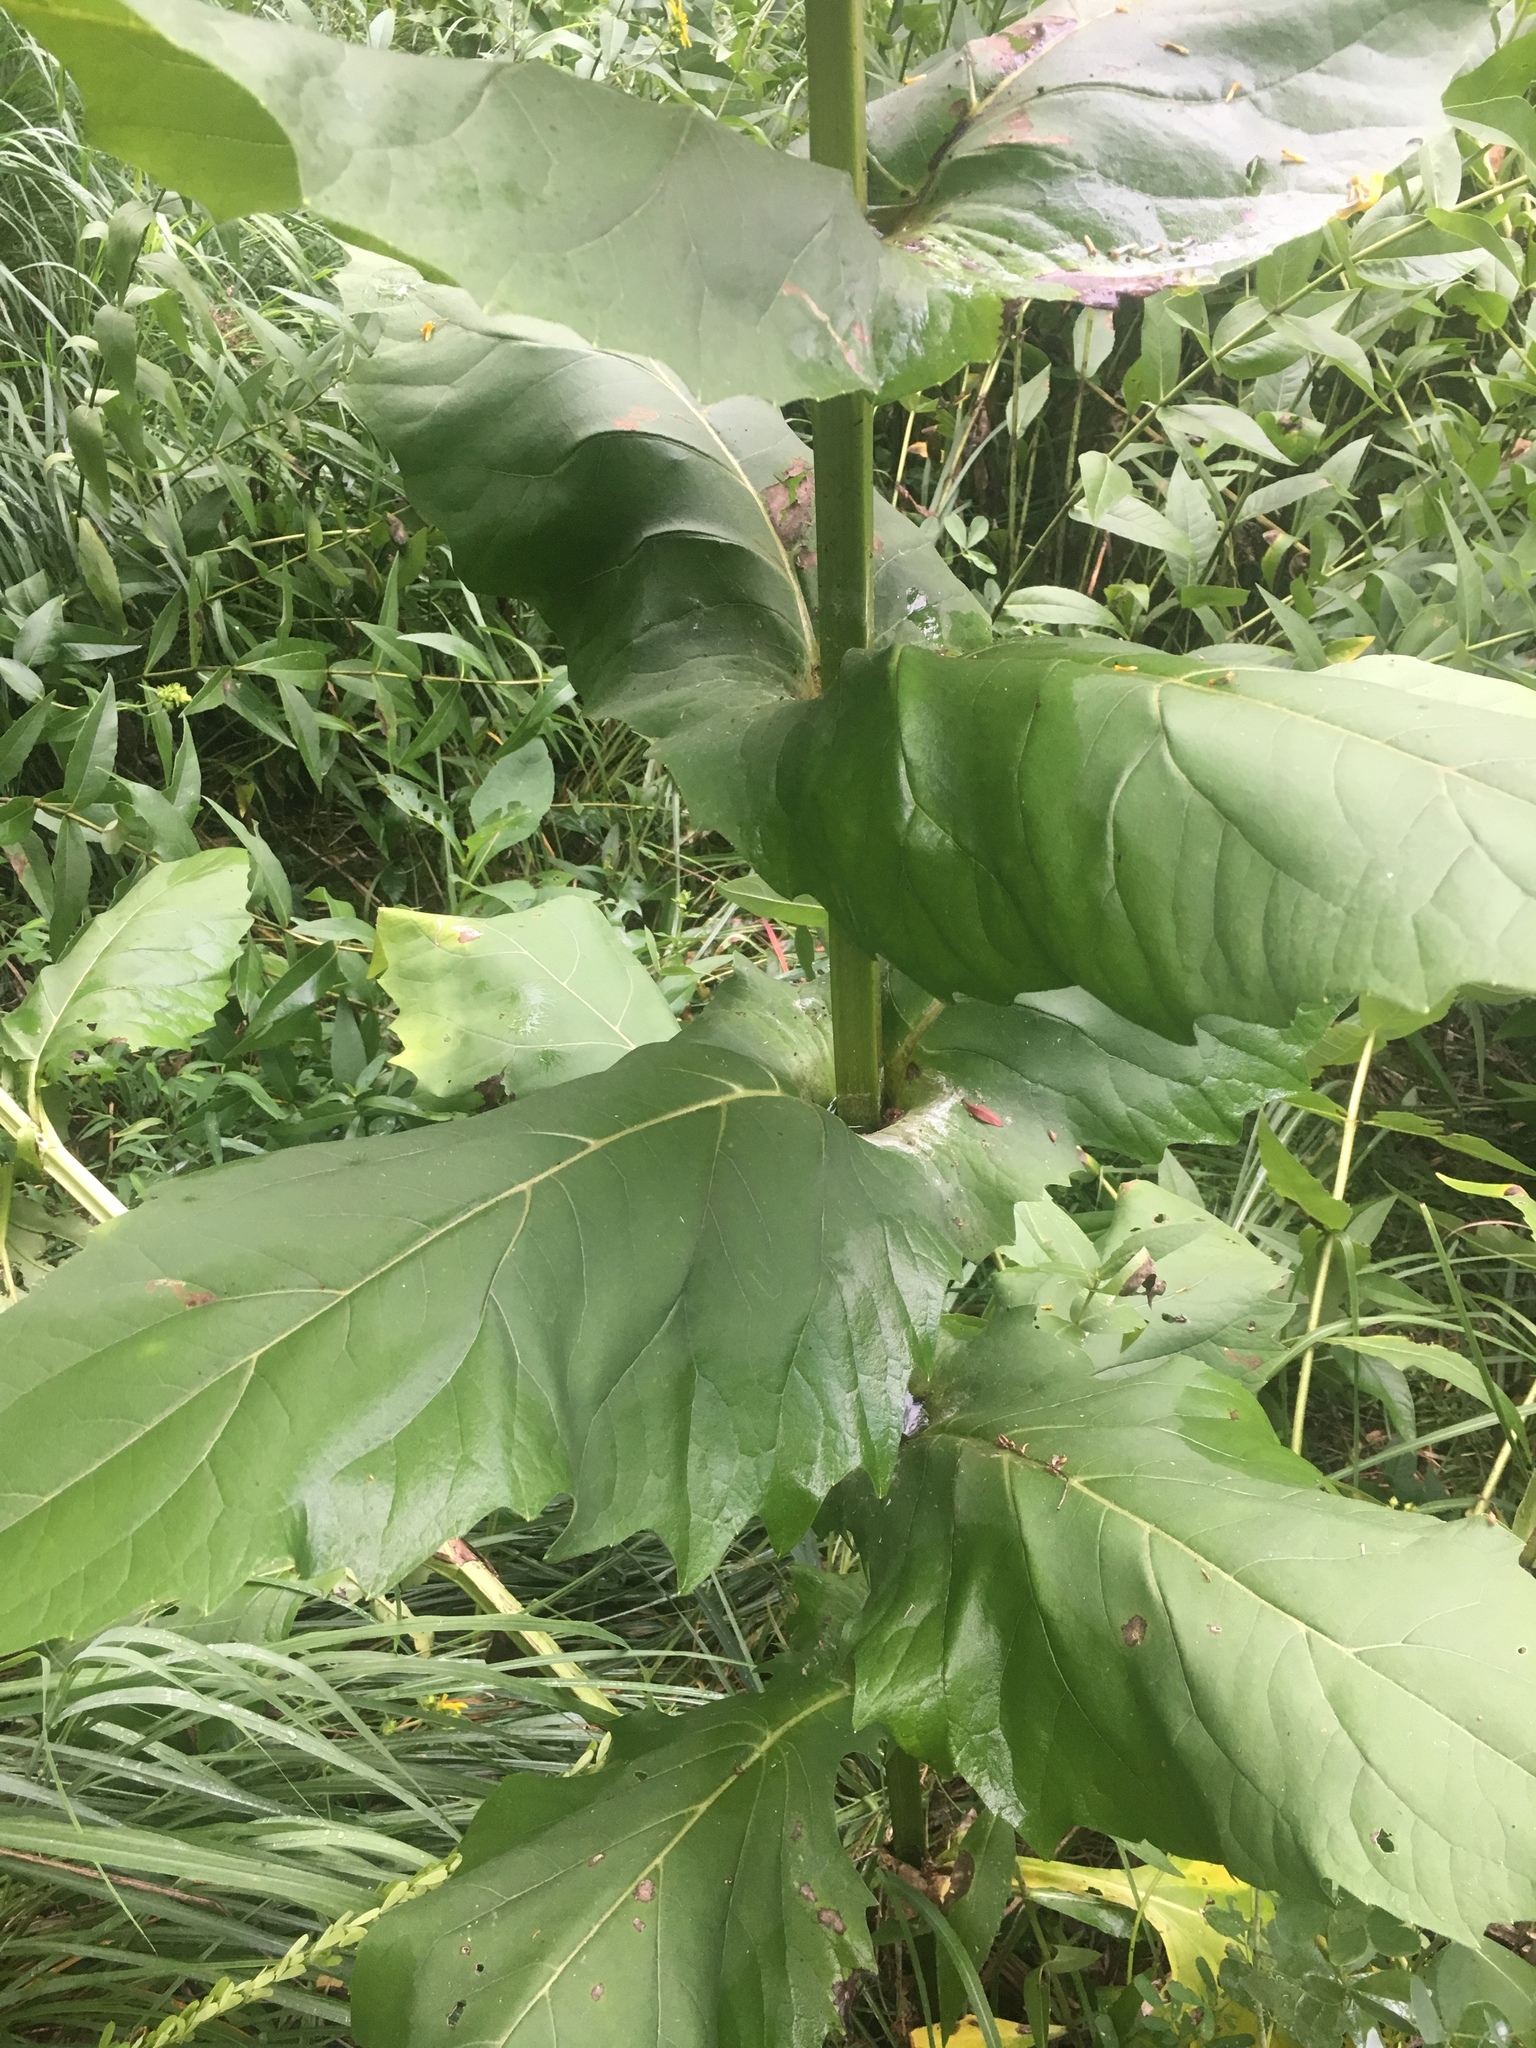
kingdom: Plantae
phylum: Tracheophyta
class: Magnoliopsida
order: Asterales
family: Asteraceae
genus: Silphium
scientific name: Silphium perfoliatum
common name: Cup-plant
